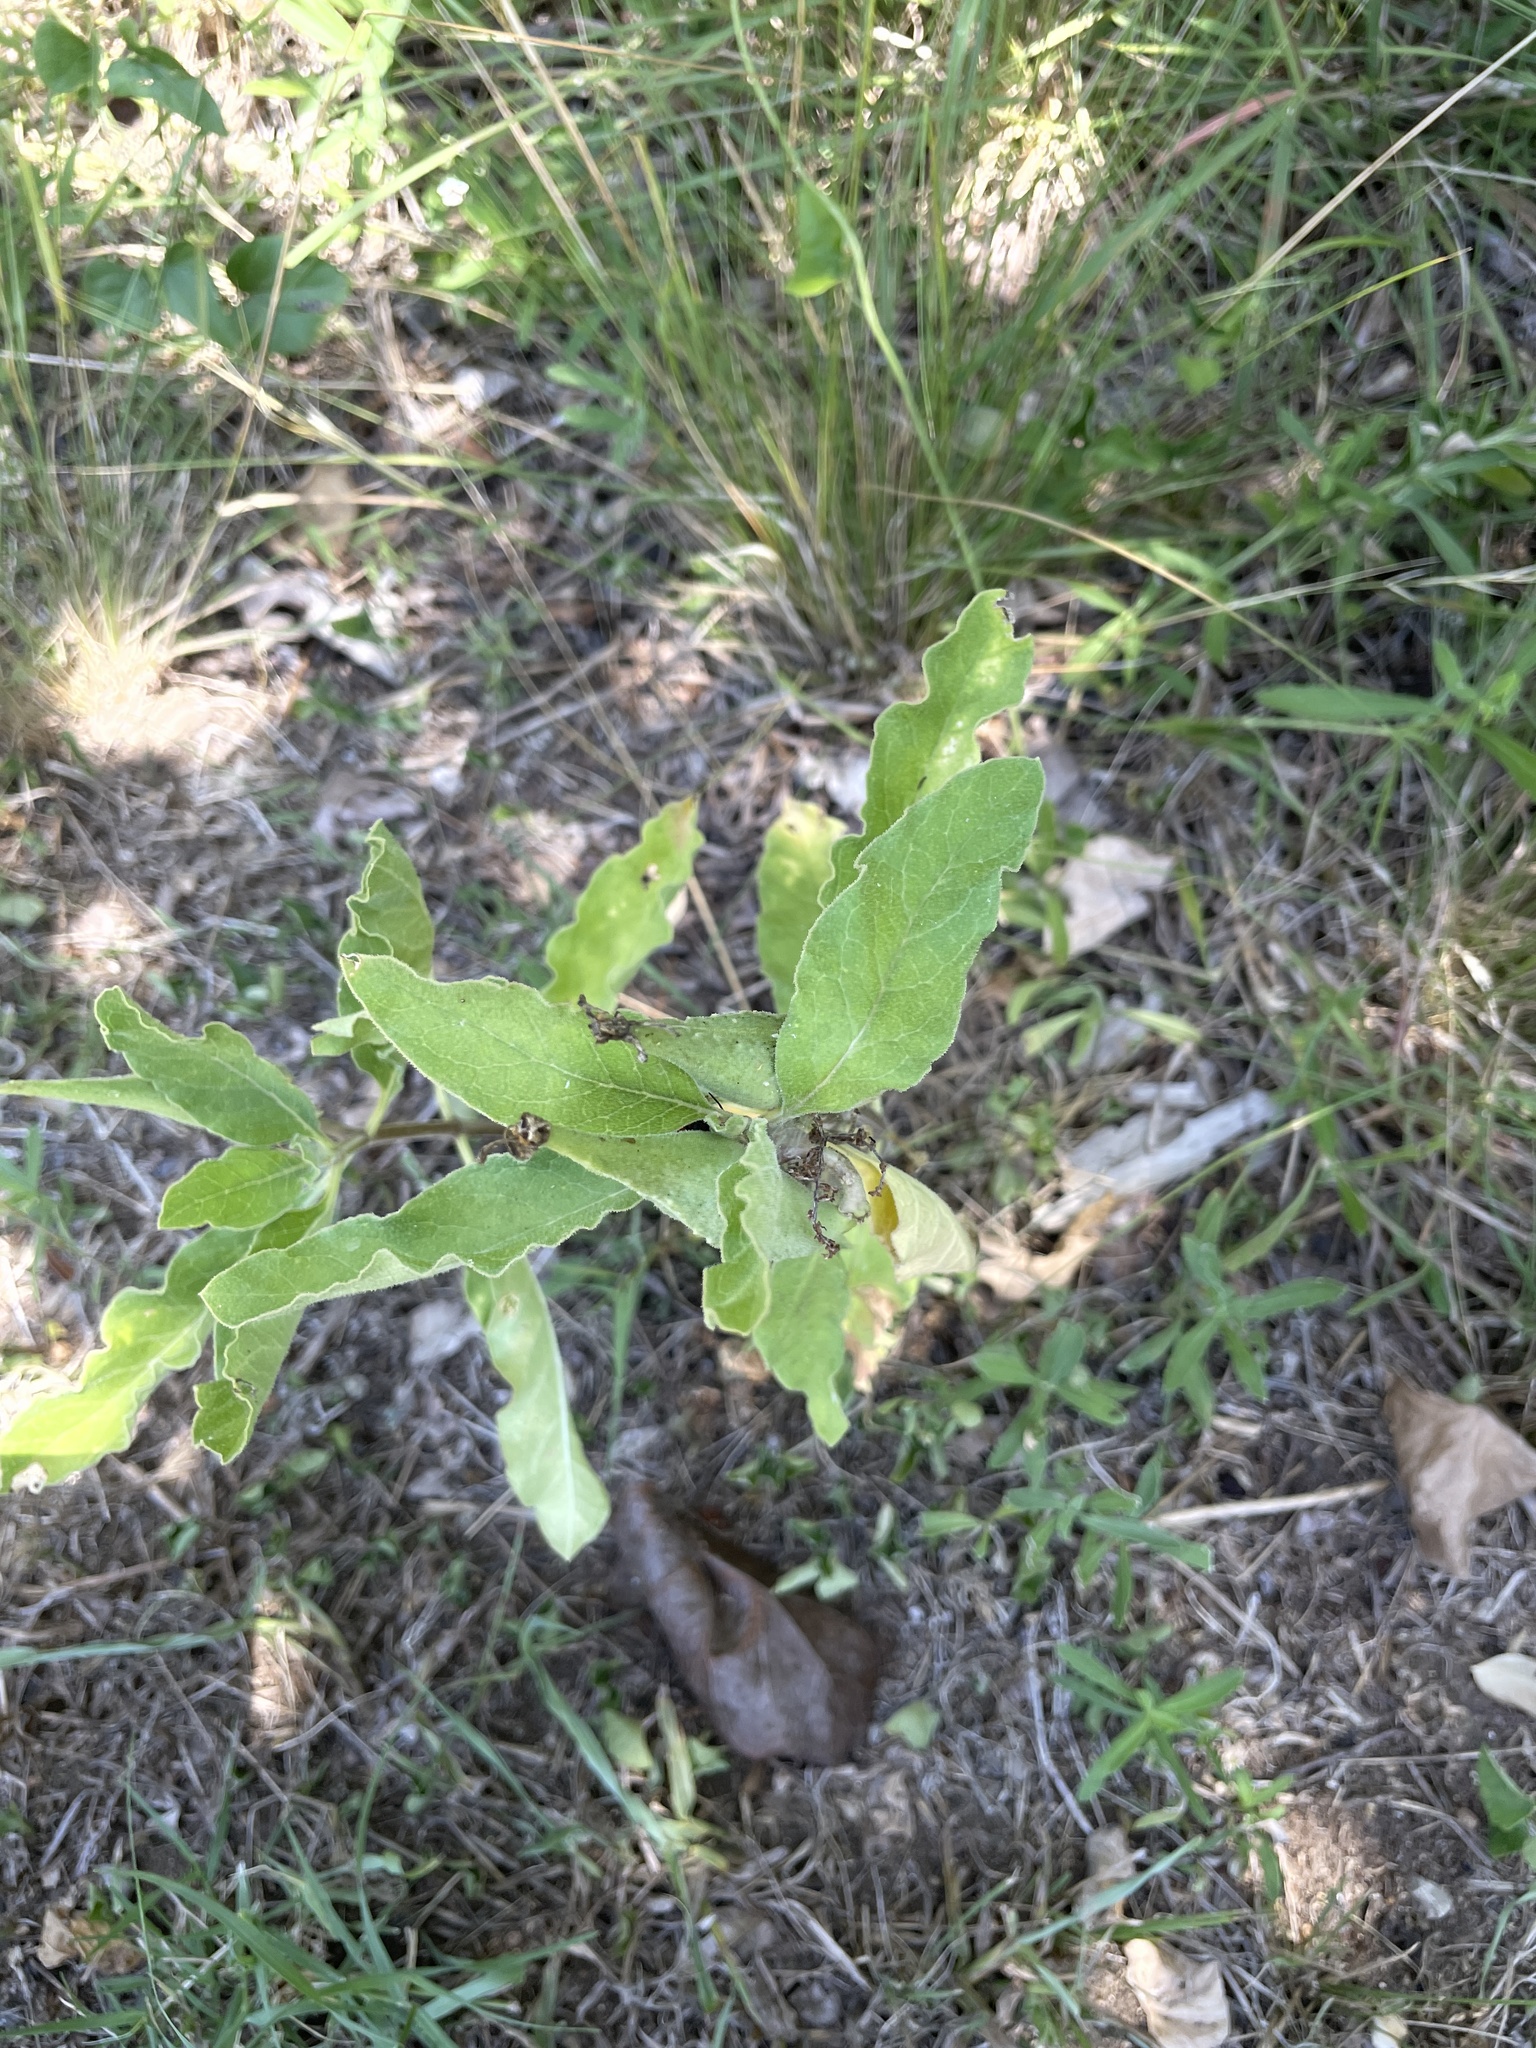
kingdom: Plantae
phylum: Tracheophyta
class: Magnoliopsida
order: Gentianales
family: Apocynaceae
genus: Asclepias
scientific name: Asclepias oenotheroides
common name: Zizotes milkweed
